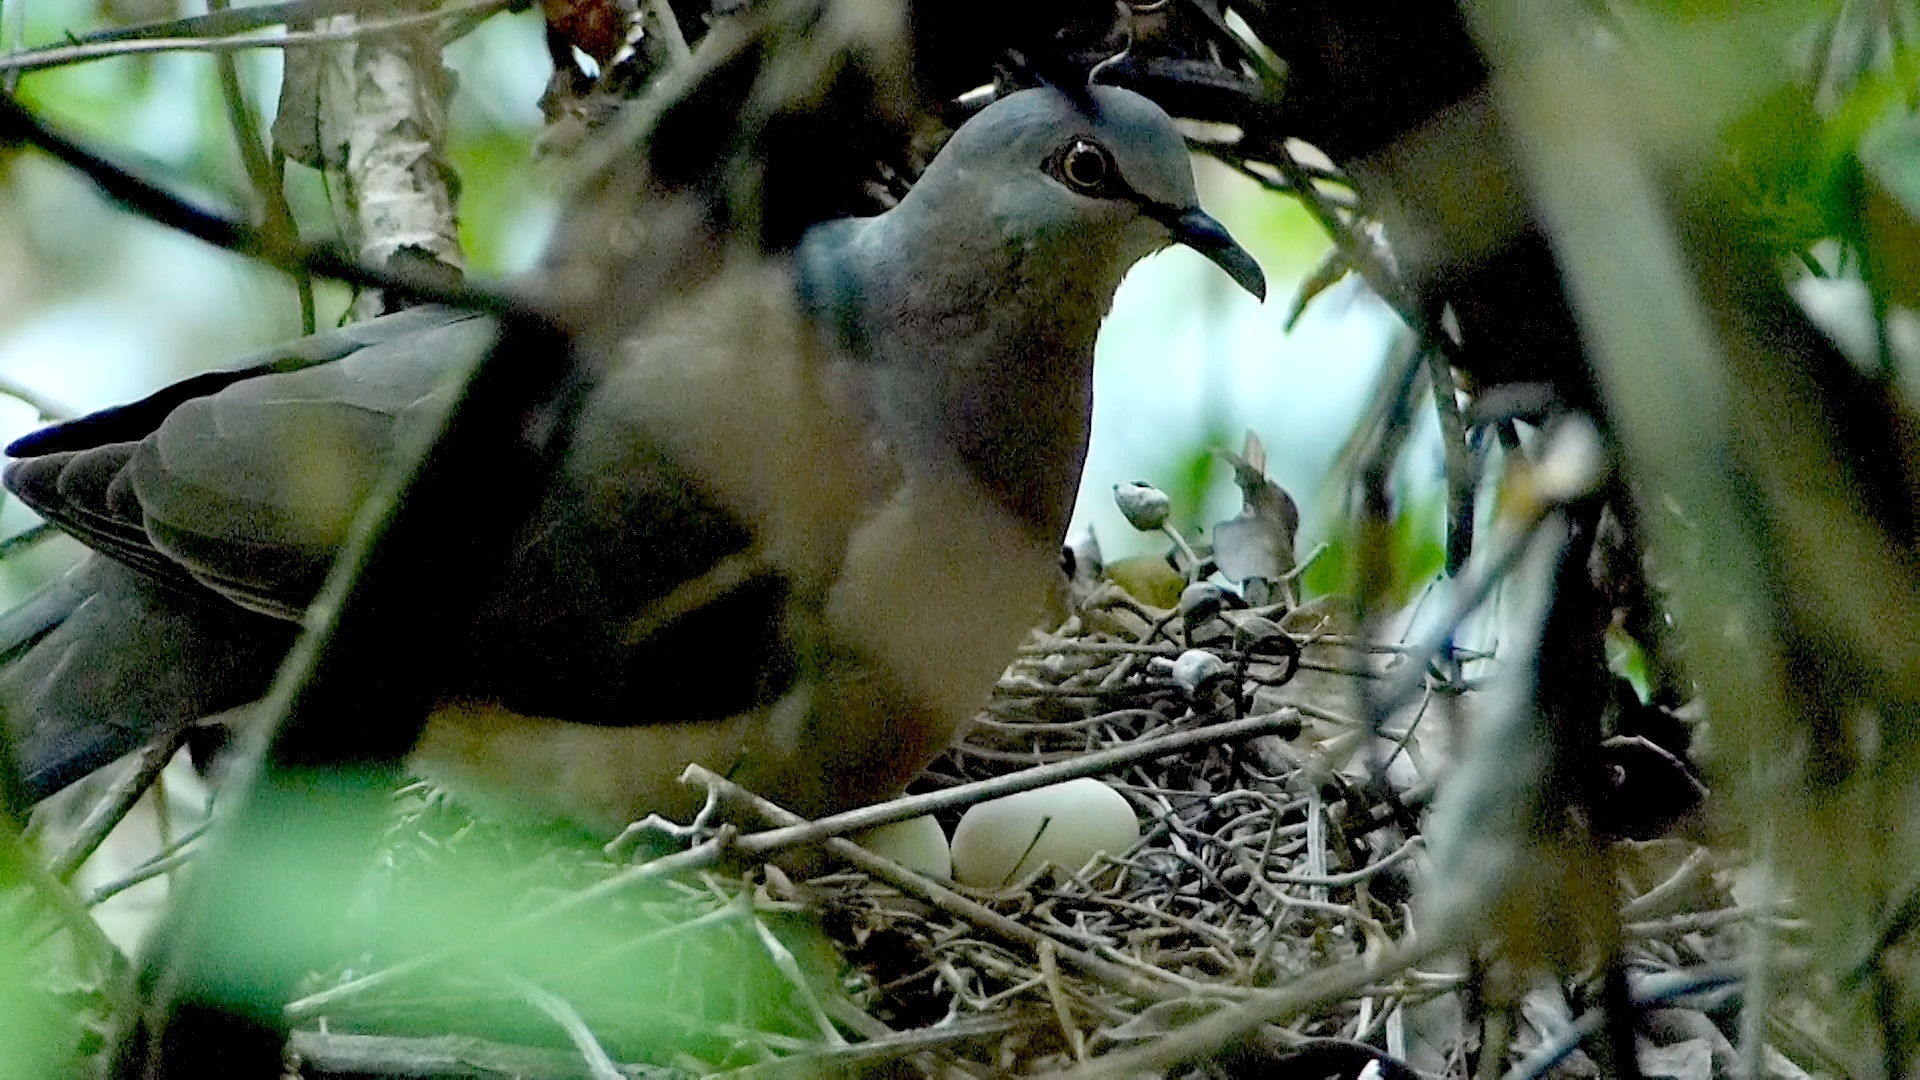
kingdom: Animalia
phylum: Chordata
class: Aves
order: Columbiformes
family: Columbidae
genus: Leptotila
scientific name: Leptotila verreauxi
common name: White-tipped dove
